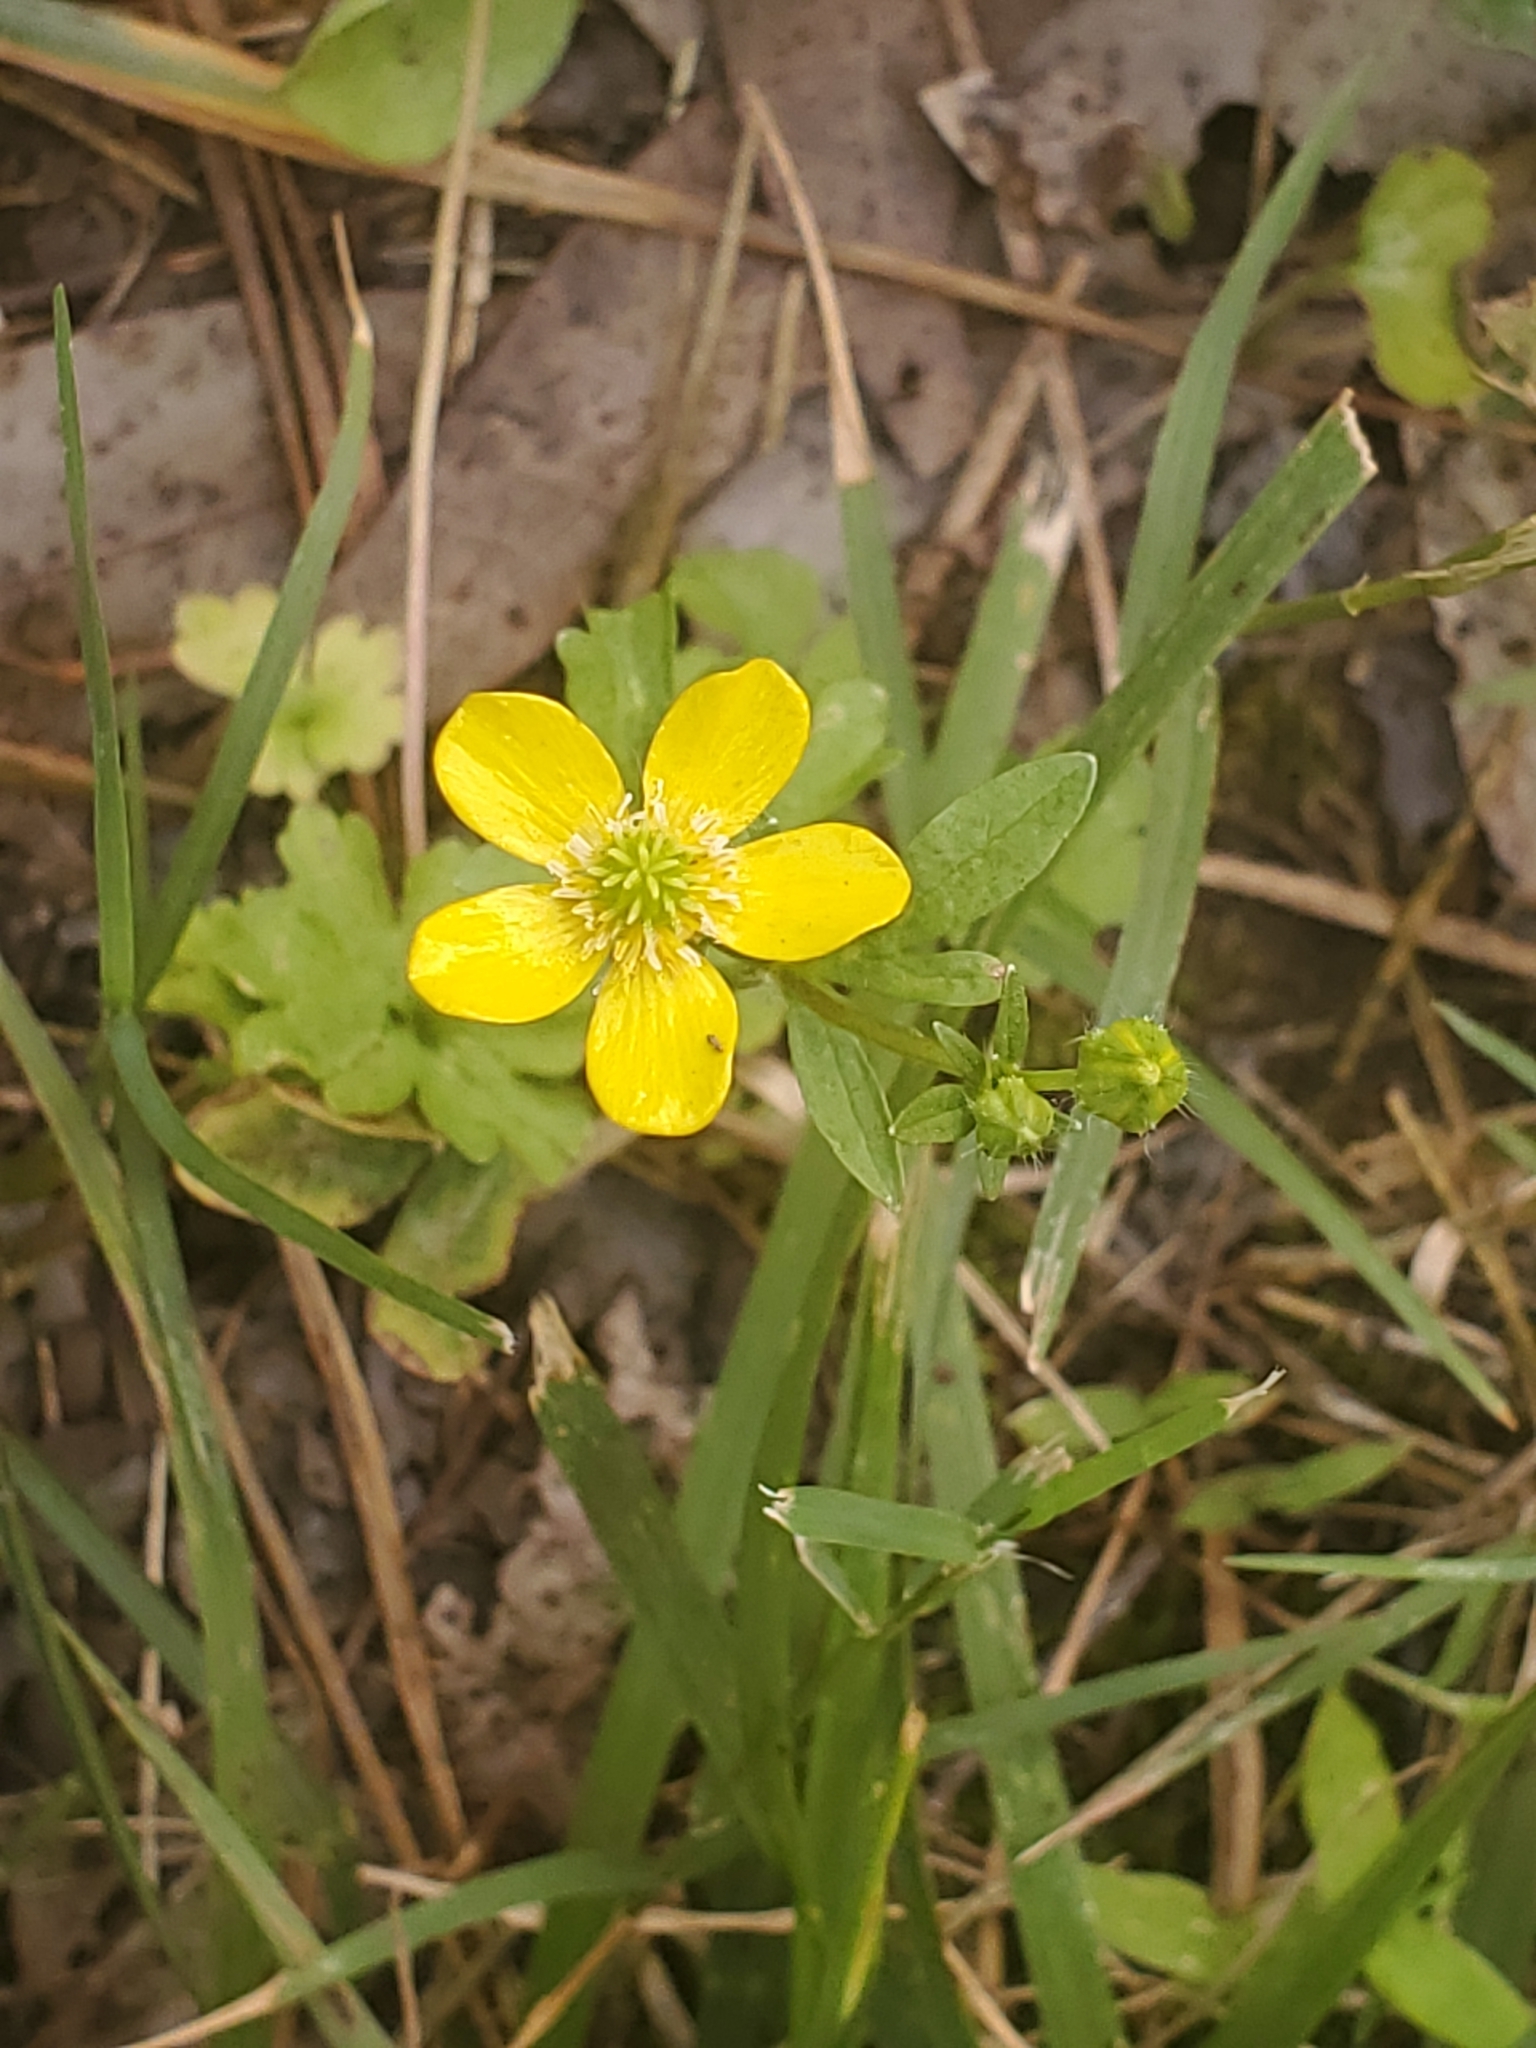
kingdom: Plantae
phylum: Tracheophyta
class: Magnoliopsida
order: Ranunculales
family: Ranunculaceae
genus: Ranunculus
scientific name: Ranunculus sardous
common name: Hairy buttercup
